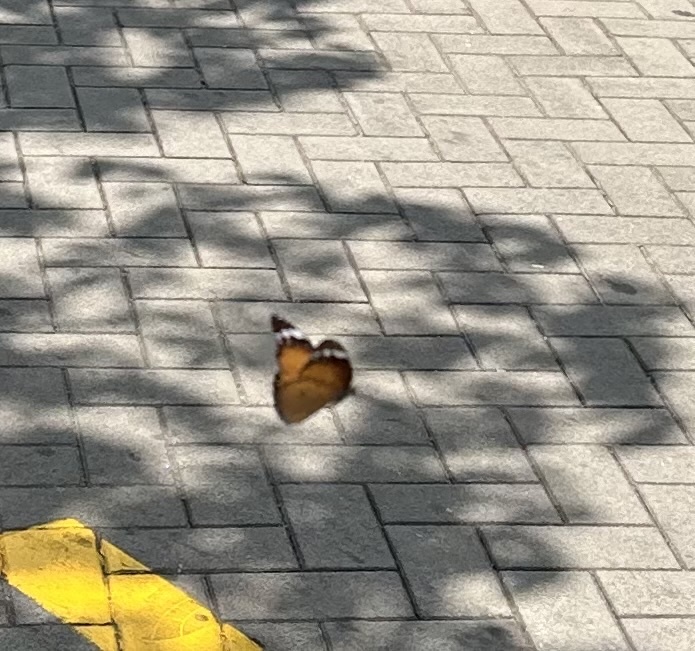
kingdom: Animalia
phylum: Arthropoda
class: Insecta
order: Lepidoptera
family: Nymphalidae
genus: Danaus
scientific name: Danaus chrysippus
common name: Plain tiger
